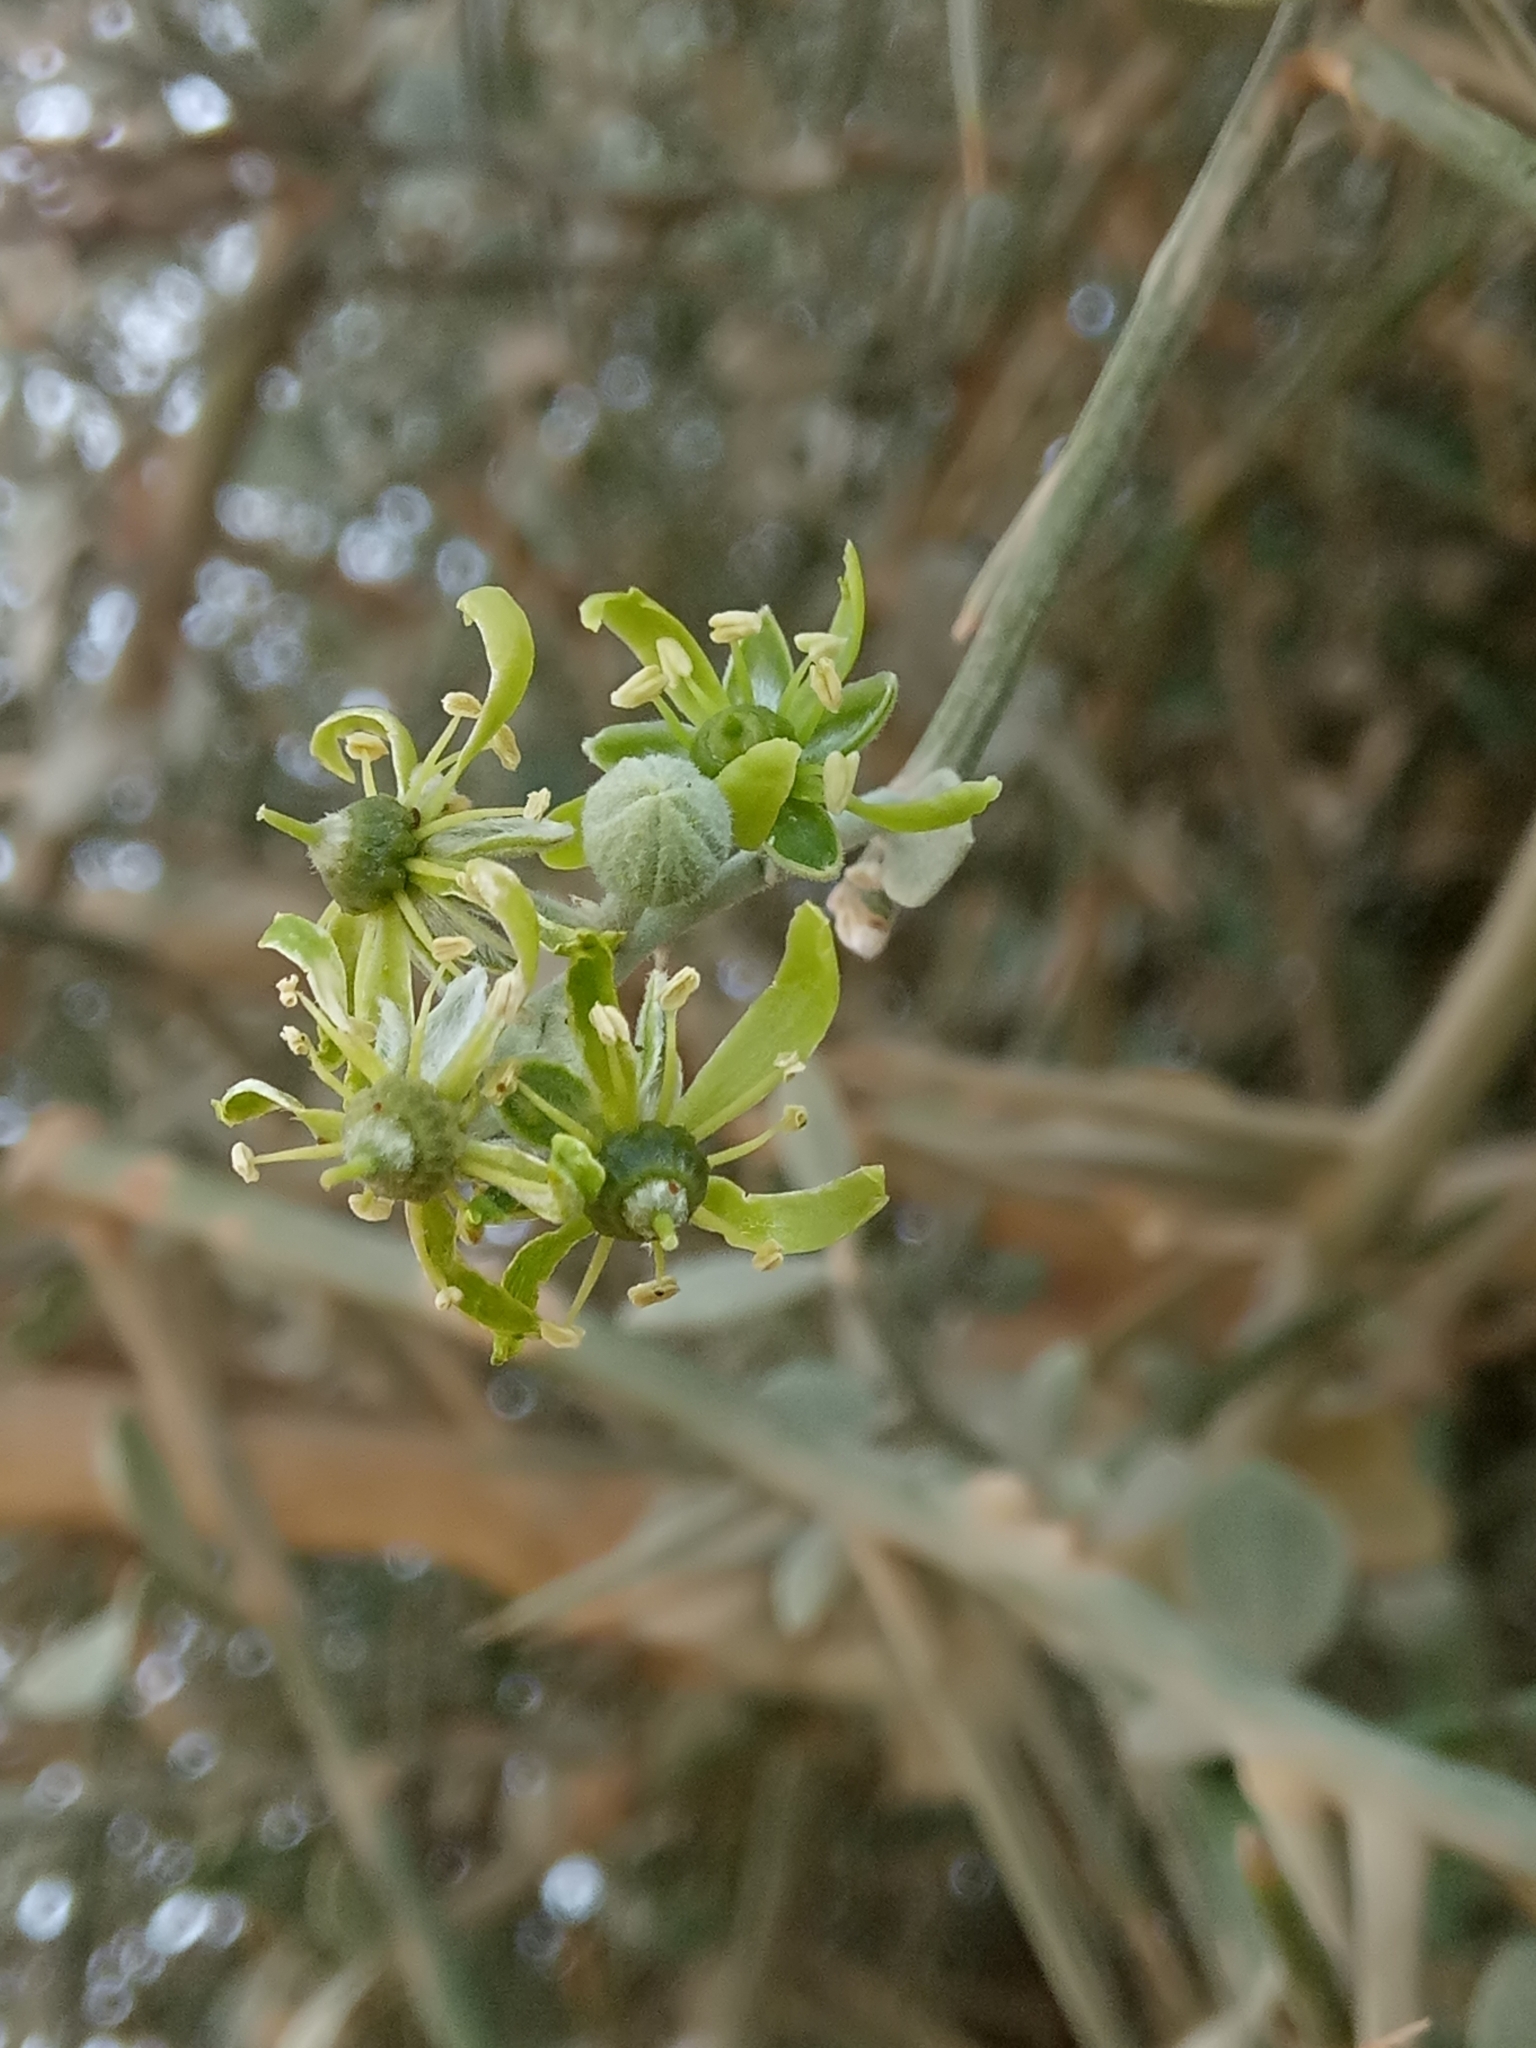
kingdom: Plantae
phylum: Tracheophyta
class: Magnoliopsida
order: Zygophyllales
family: Zygophyllaceae
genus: Balanites
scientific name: Balanites aegyptiaca
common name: Balanites
